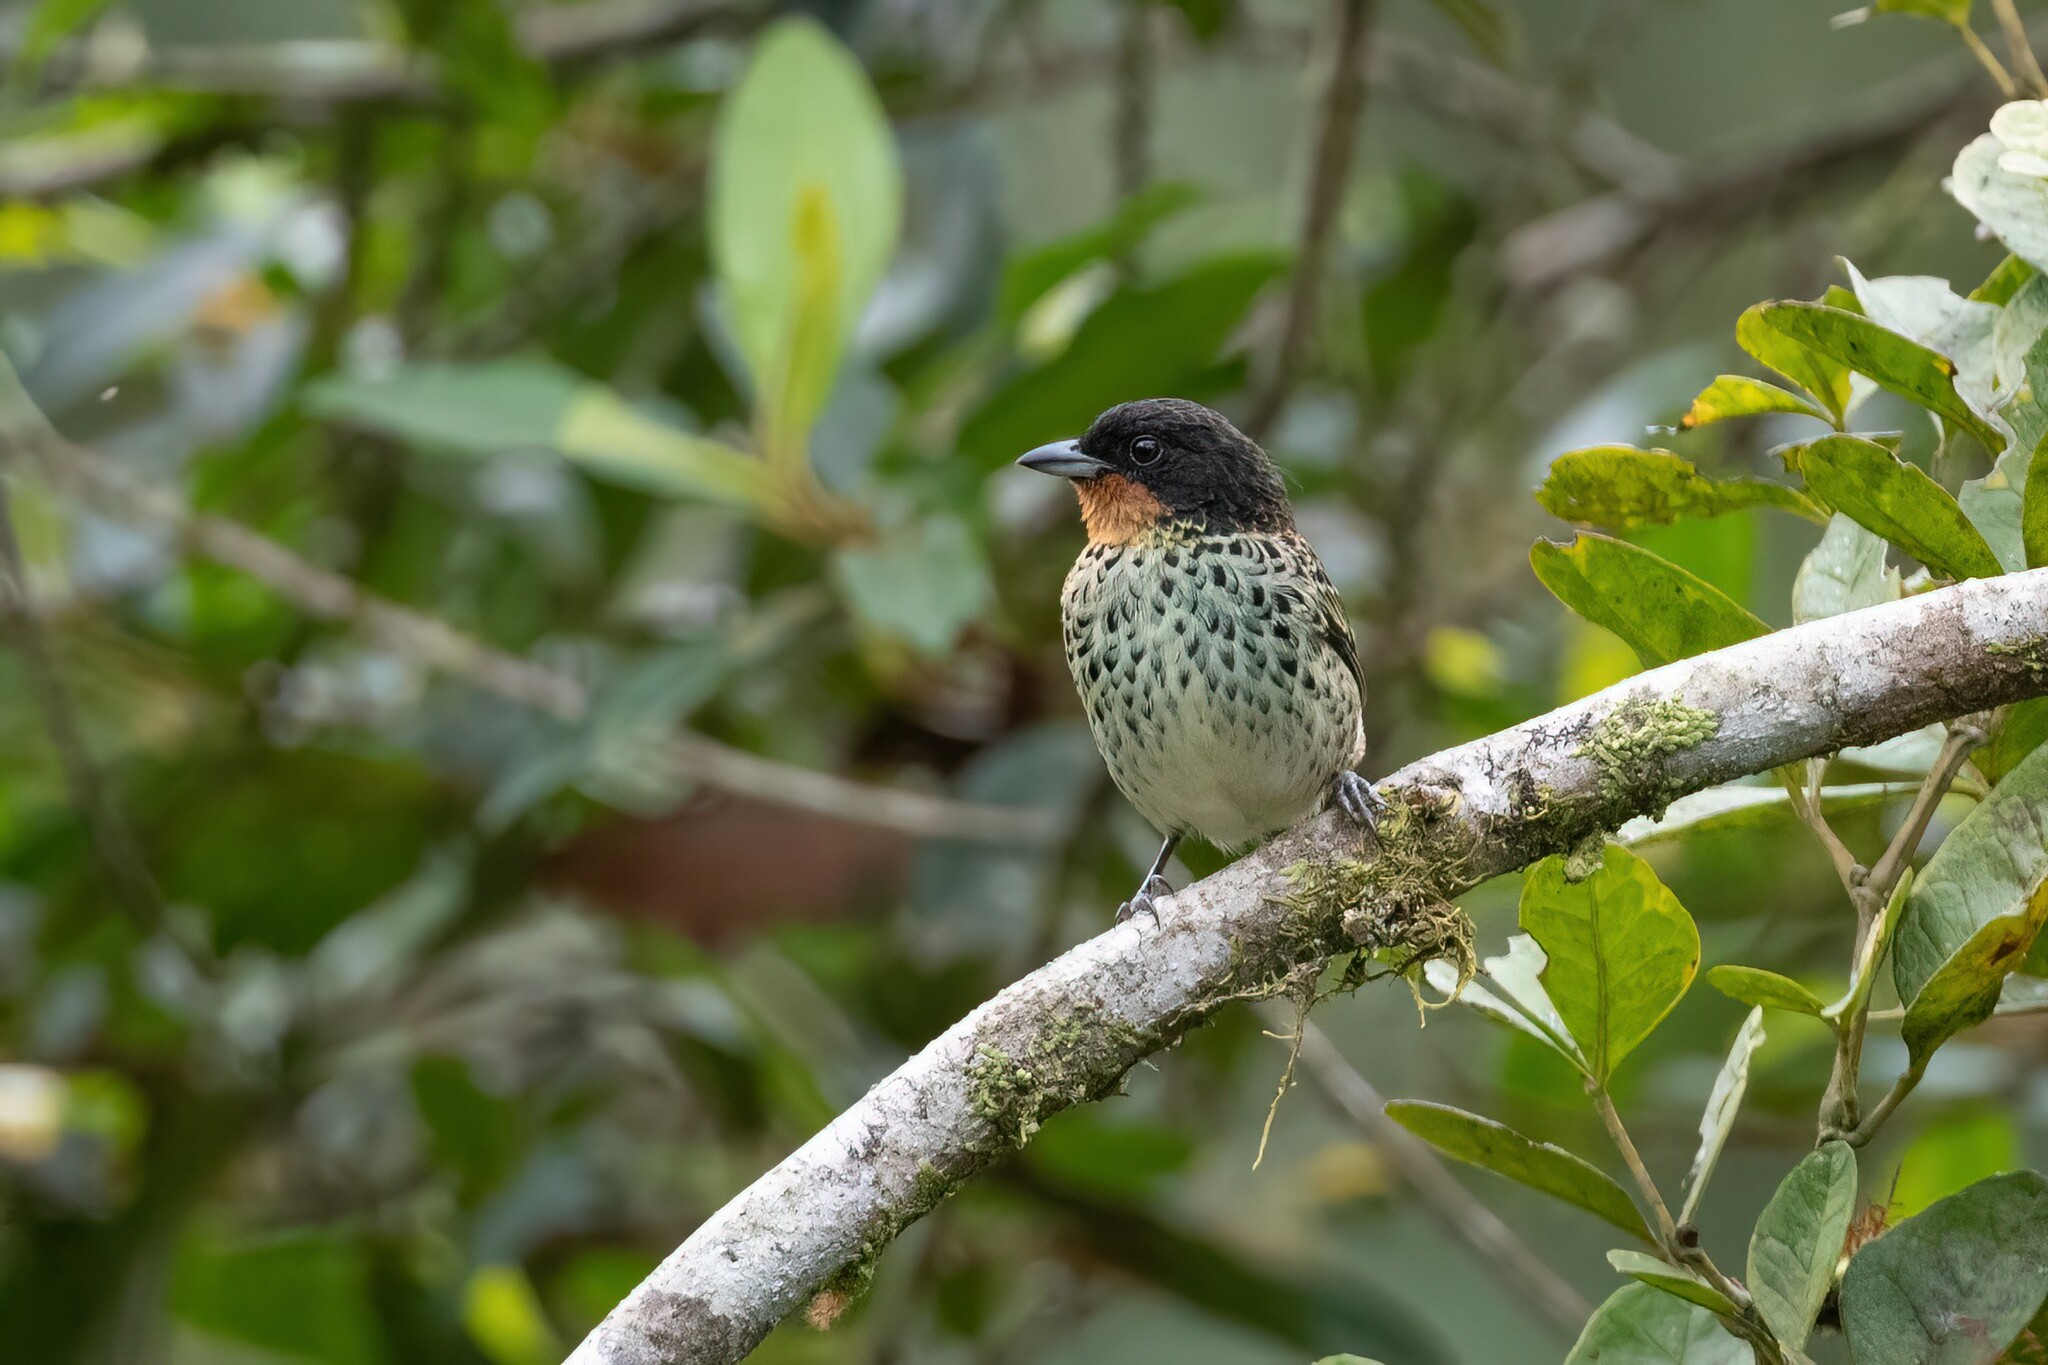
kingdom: Animalia
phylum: Chordata
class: Aves
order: Passeriformes
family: Thraupidae
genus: Ixothraupis
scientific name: Ixothraupis rufigula
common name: Rufous-throated tanager
